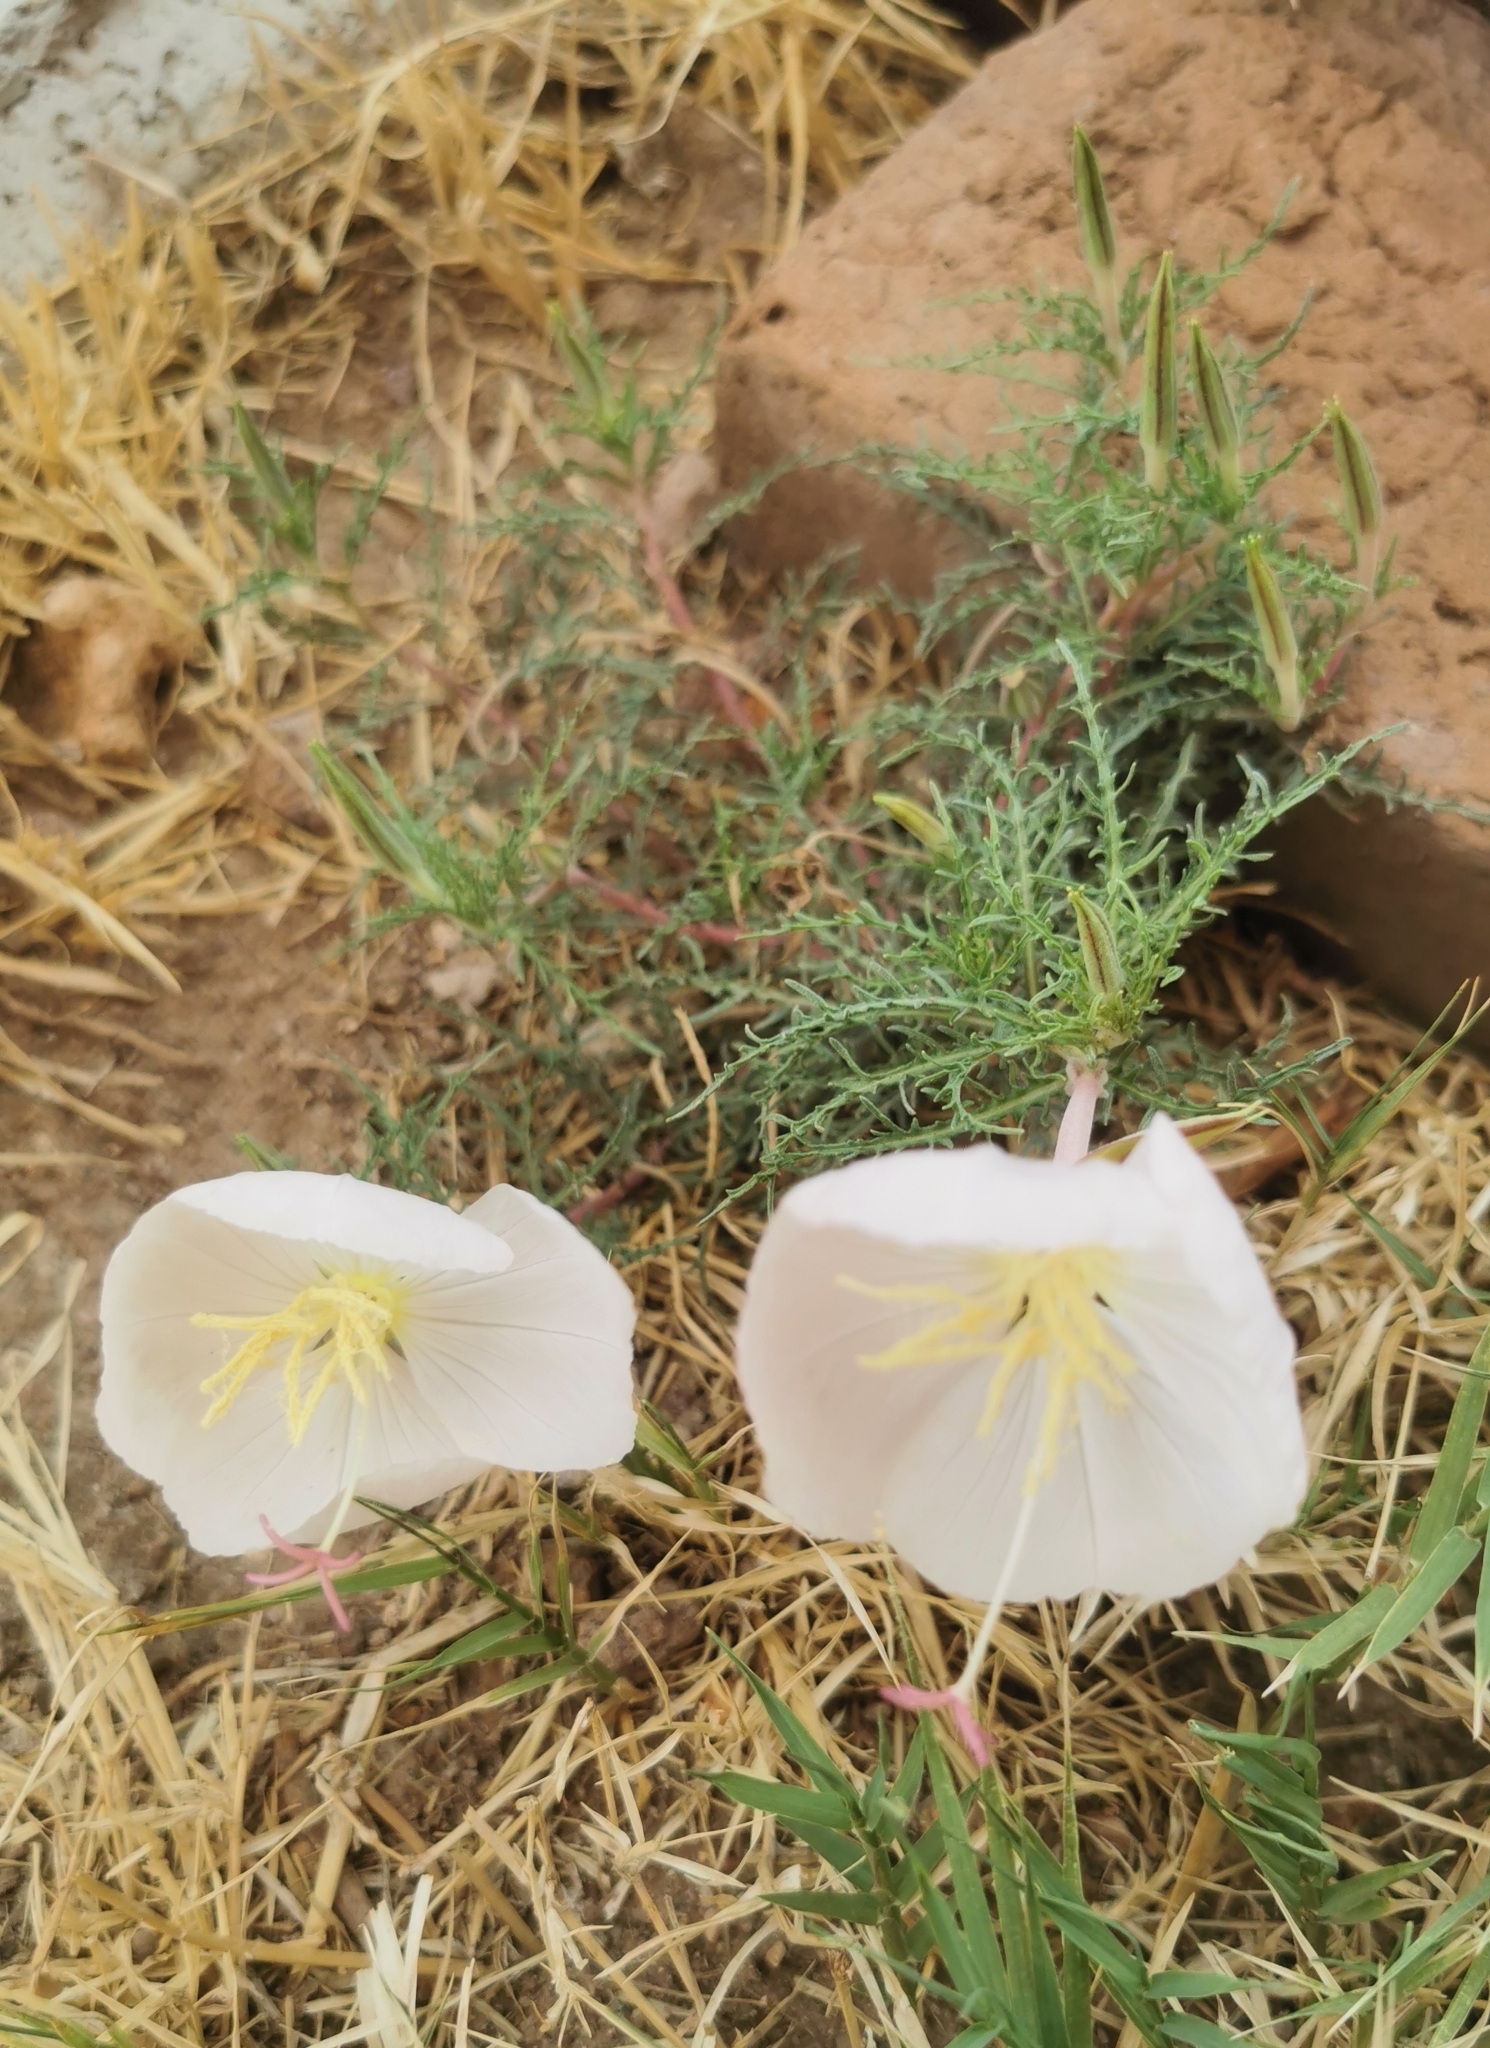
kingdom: Plantae
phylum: Tracheophyta
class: Magnoliopsida
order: Myrtales
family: Onagraceae
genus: Oenothera
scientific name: Oenothera dissecta
